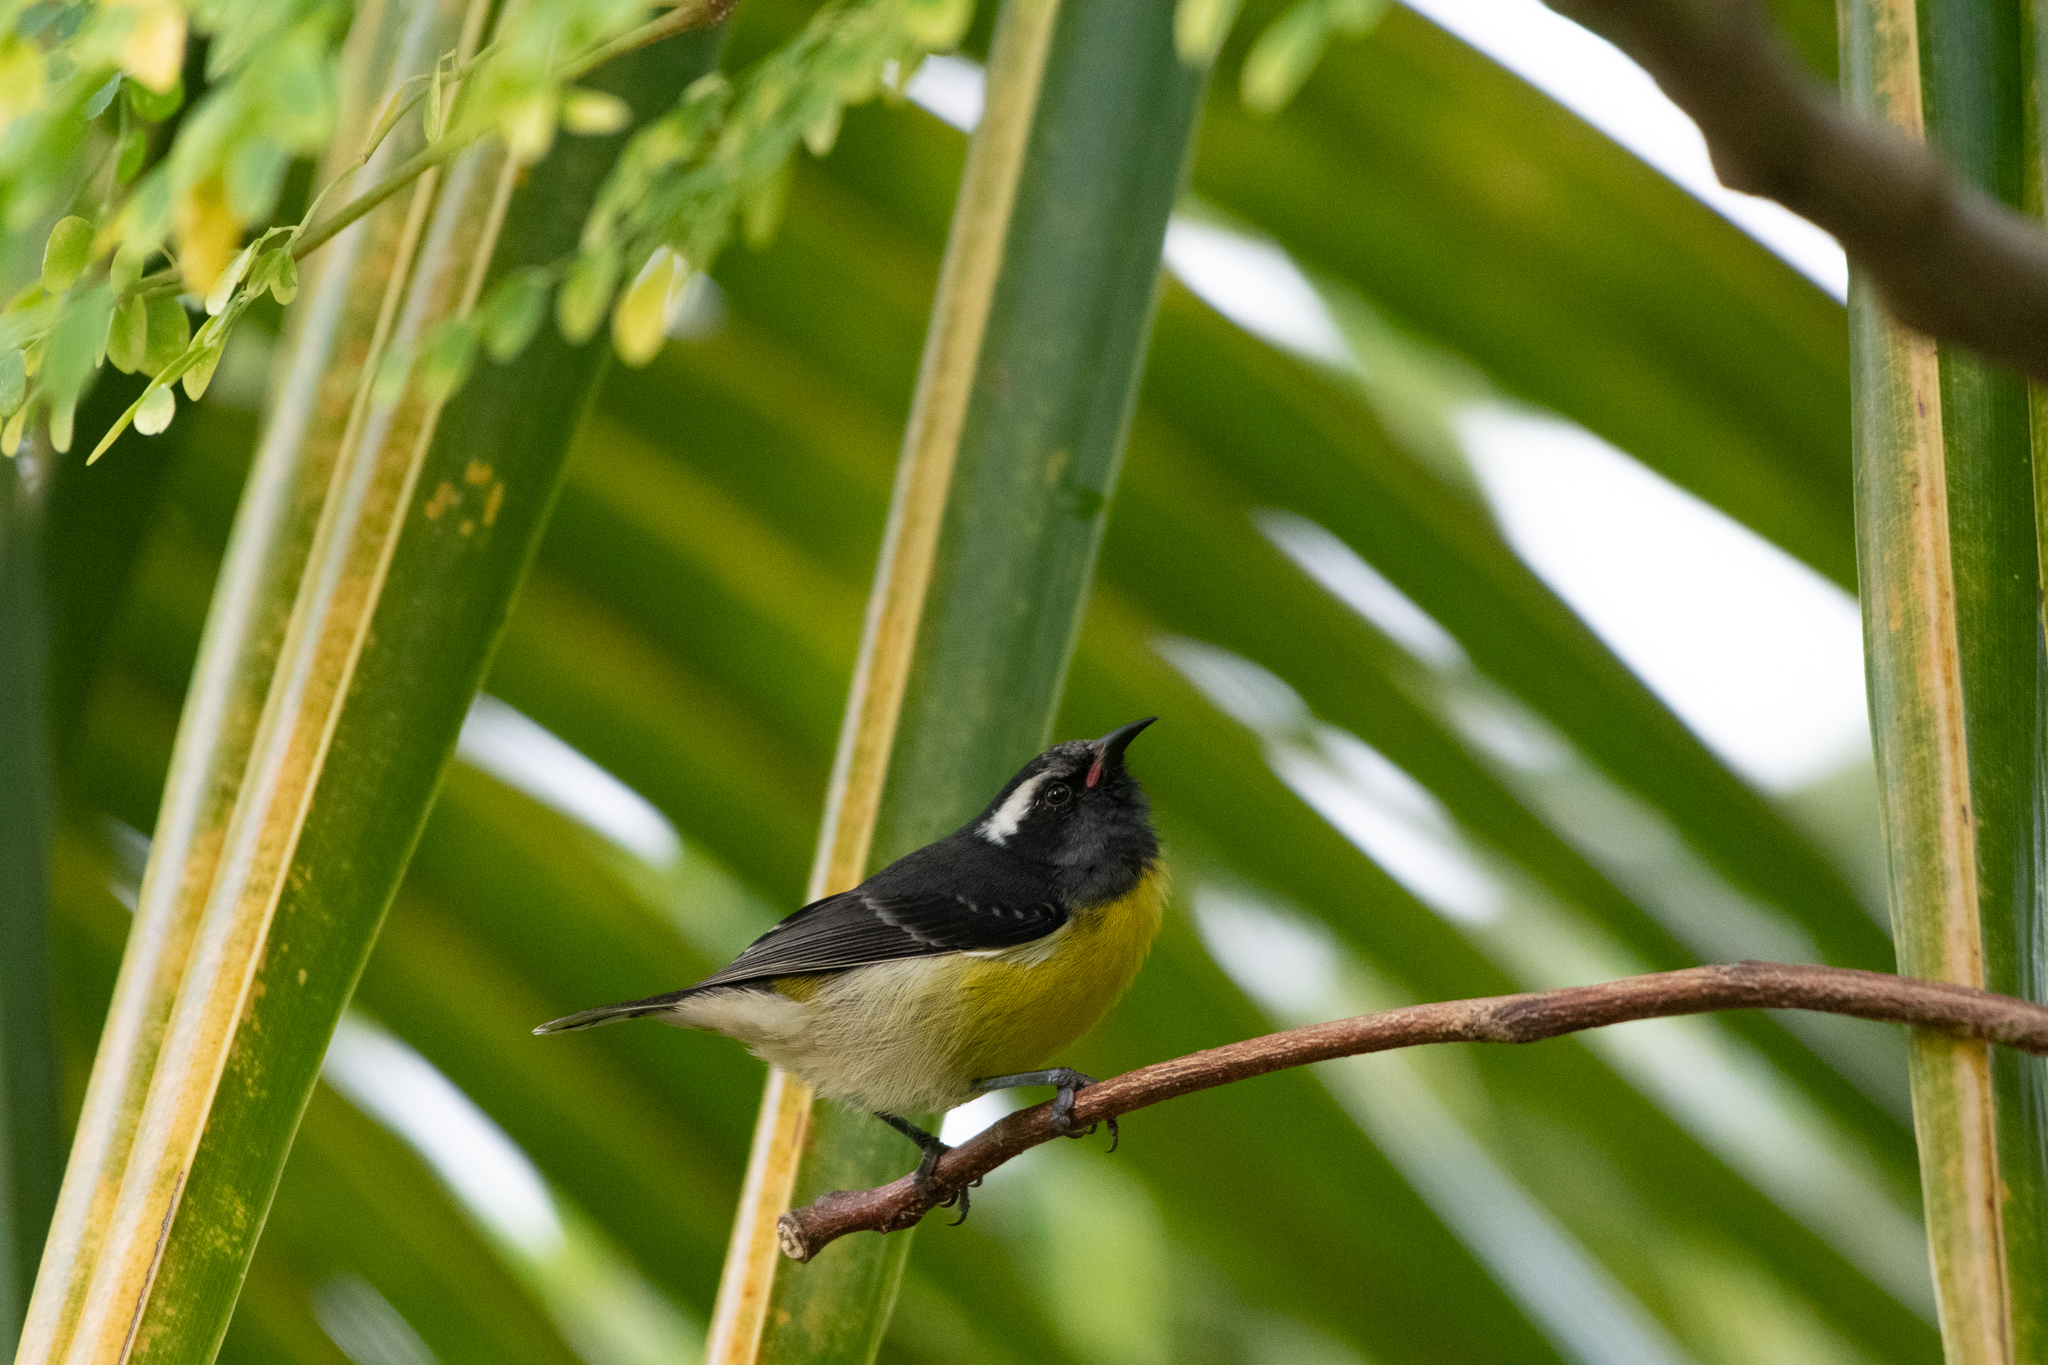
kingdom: Animalia
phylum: Chordata
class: Aves
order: Passeriformes
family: Thraupidae
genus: Coereba
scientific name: Coereba flaveola
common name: Bananaquit
